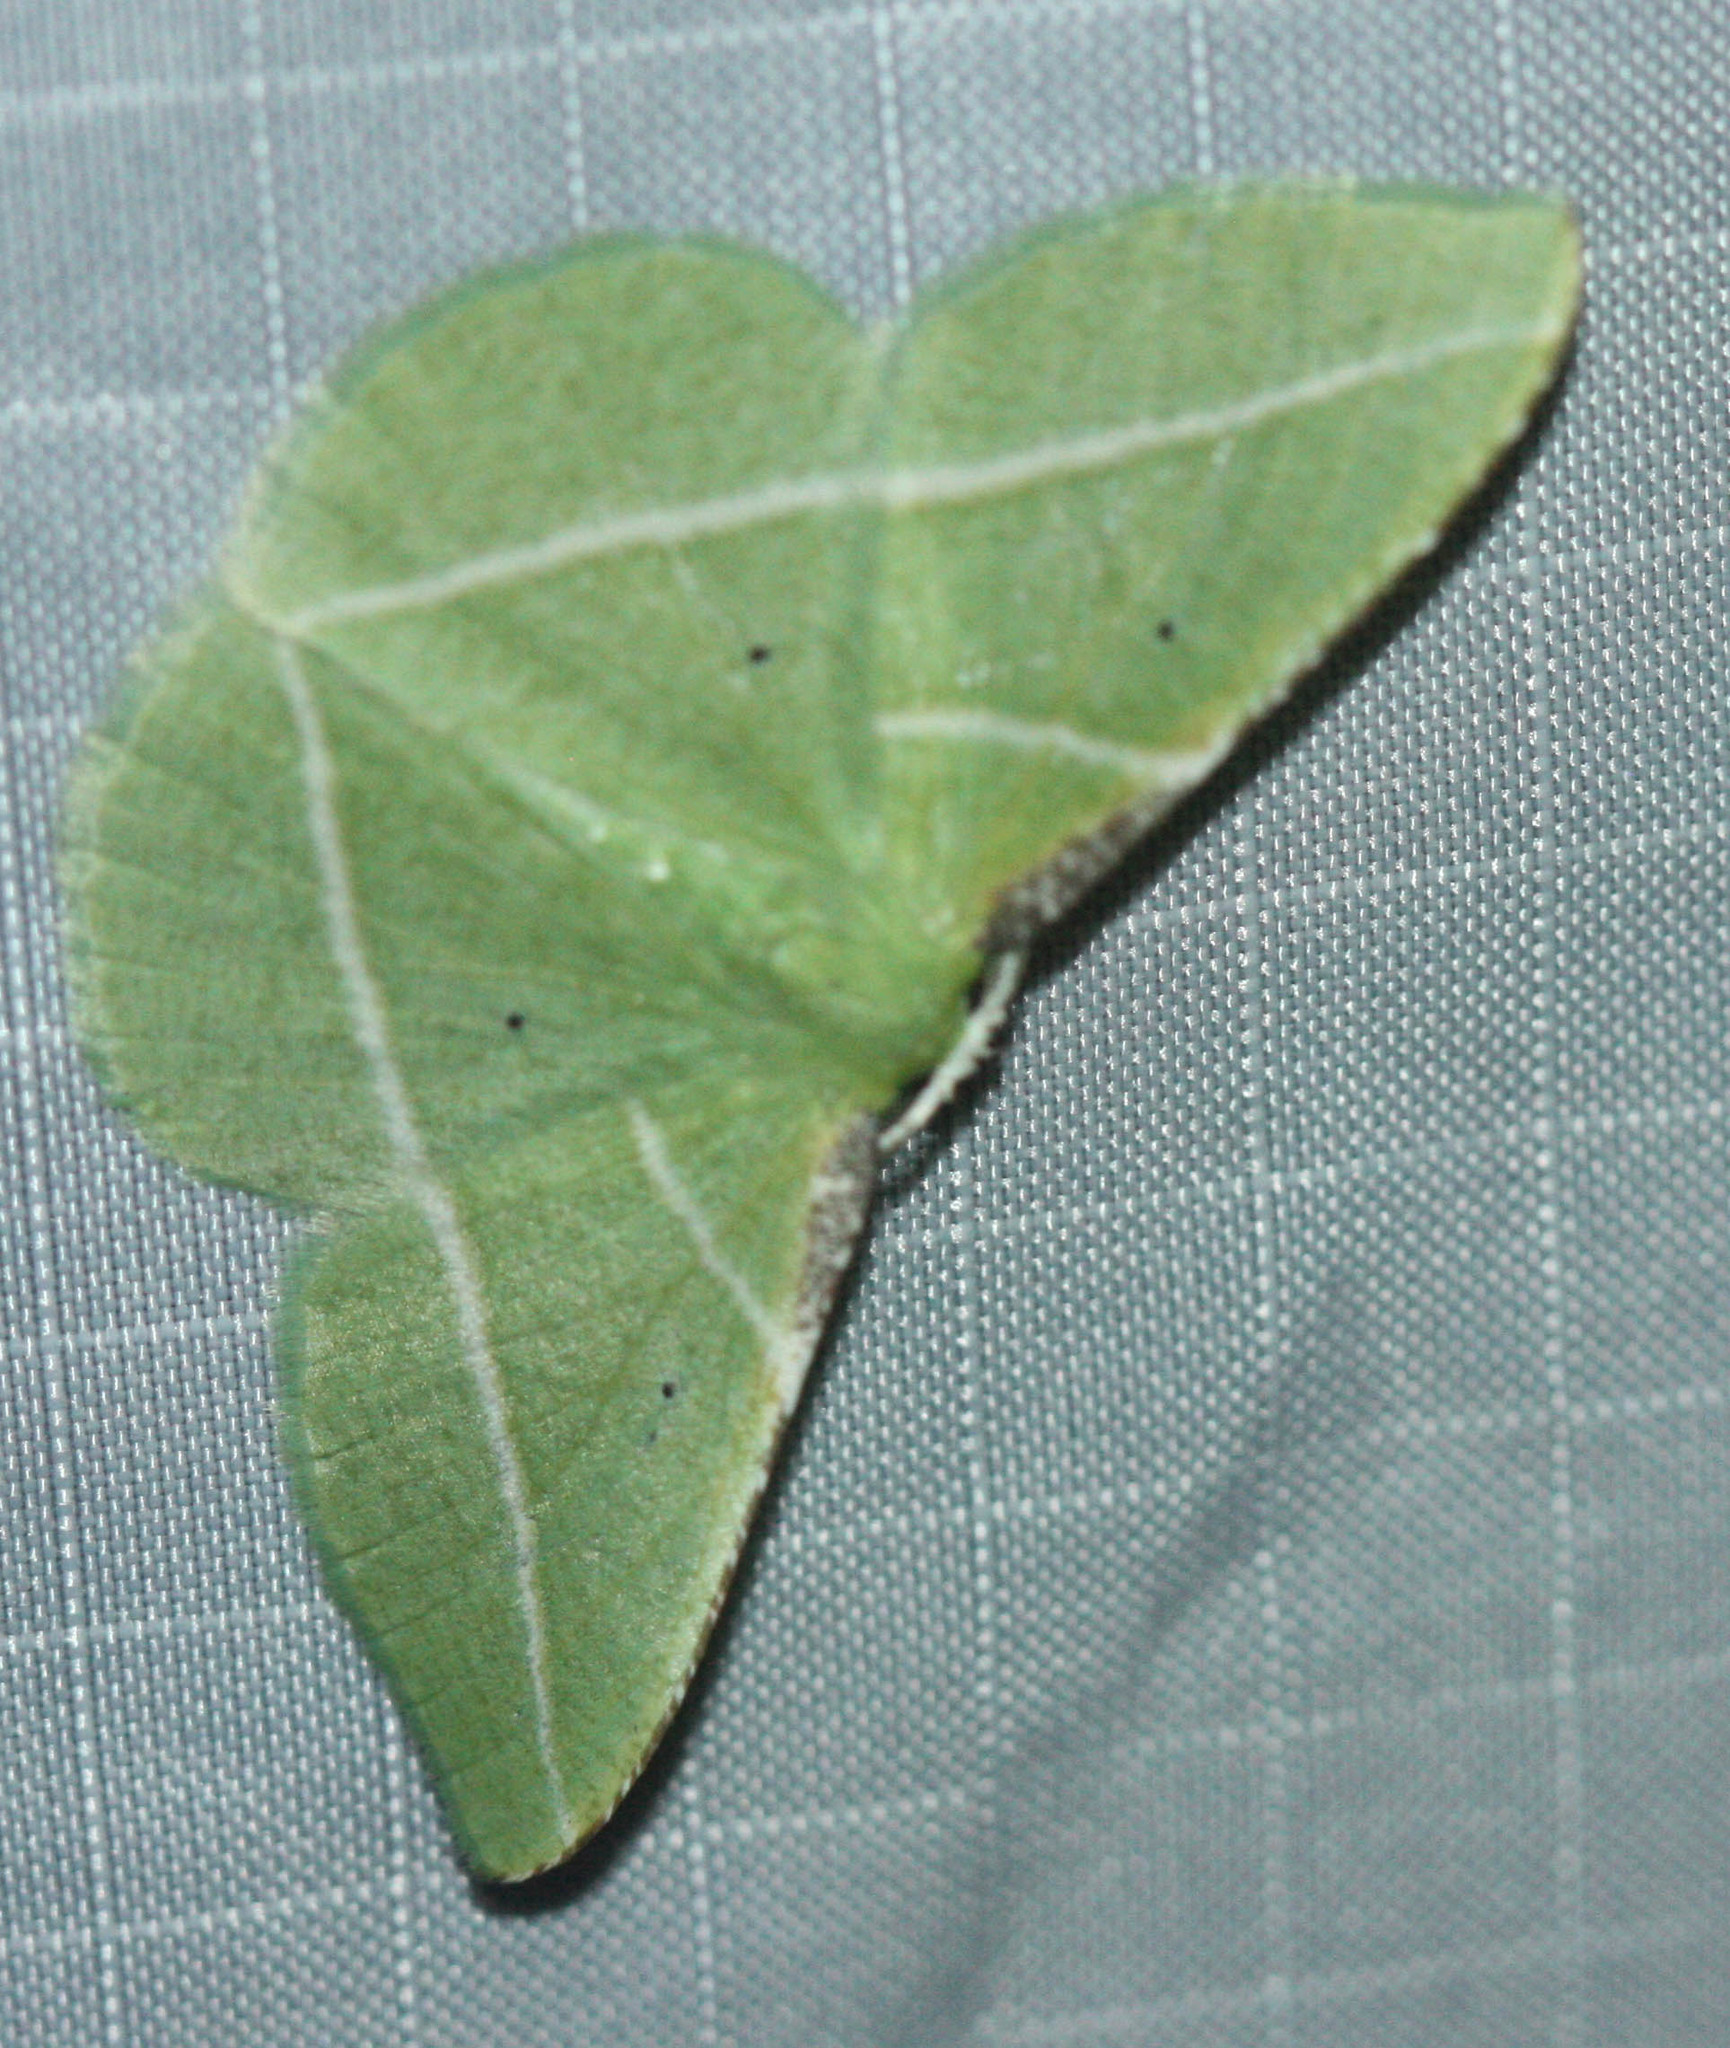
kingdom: Animalia
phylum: Arthropoda
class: Insecta
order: Lepidoptera
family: Geometridae
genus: Dichorda
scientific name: Dichorda illustraria
